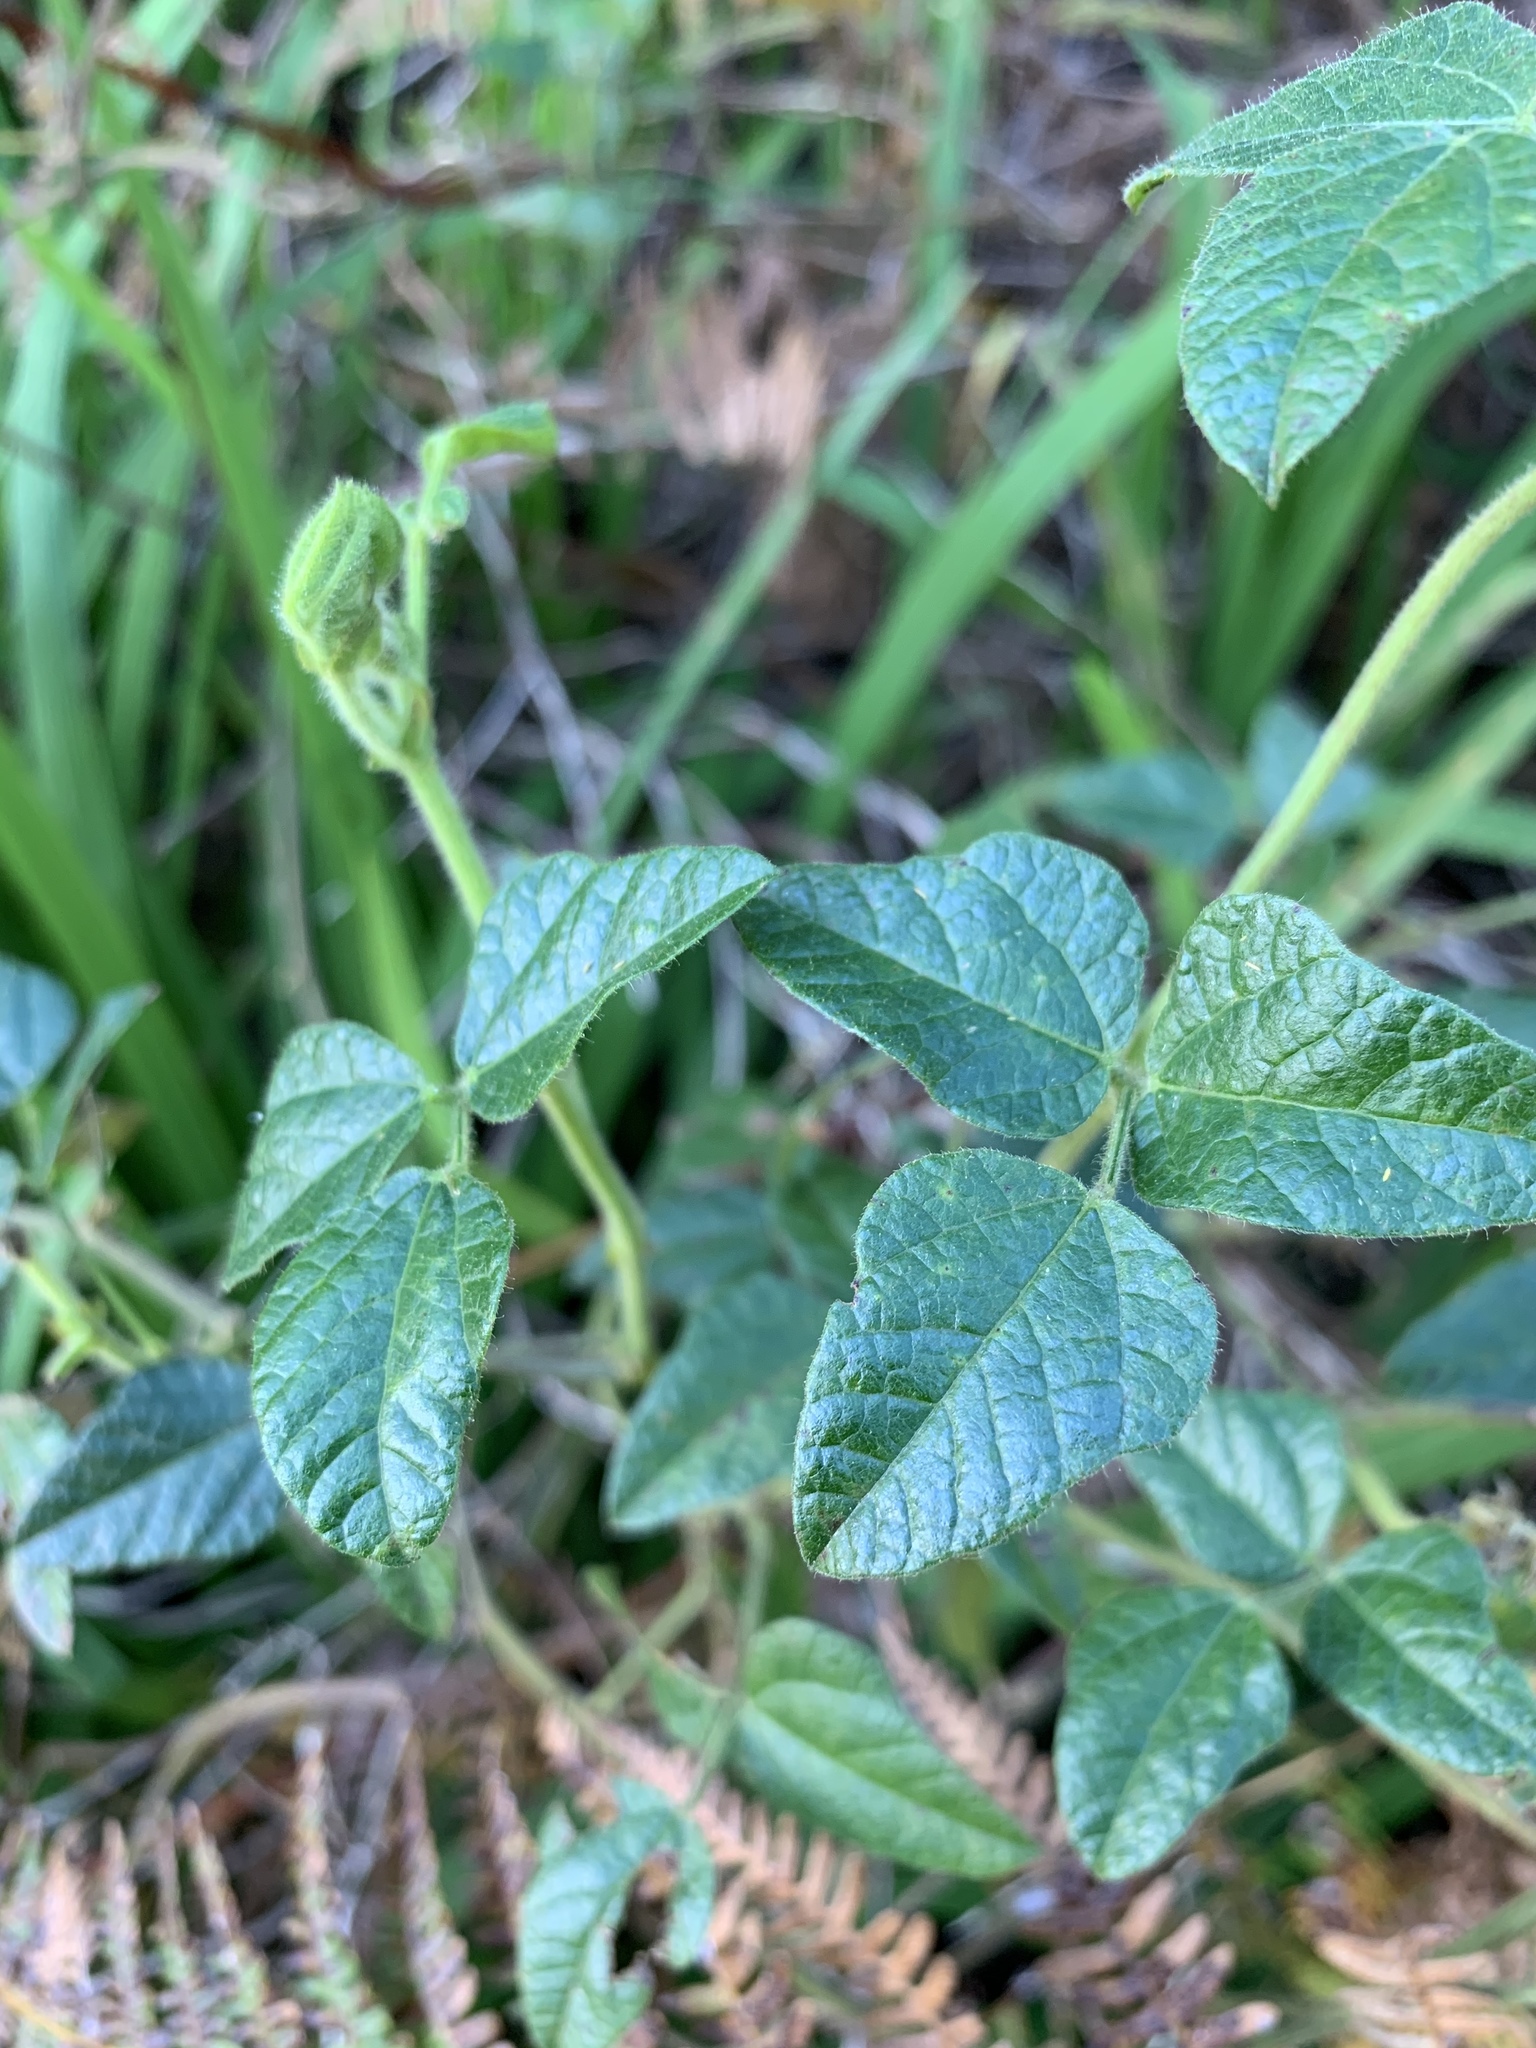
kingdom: Plantae
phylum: Tracheophyta
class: Magnoliopsida
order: Fabales
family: Fabaceae
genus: Bolusafra
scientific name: Bolusafra bituminosa
